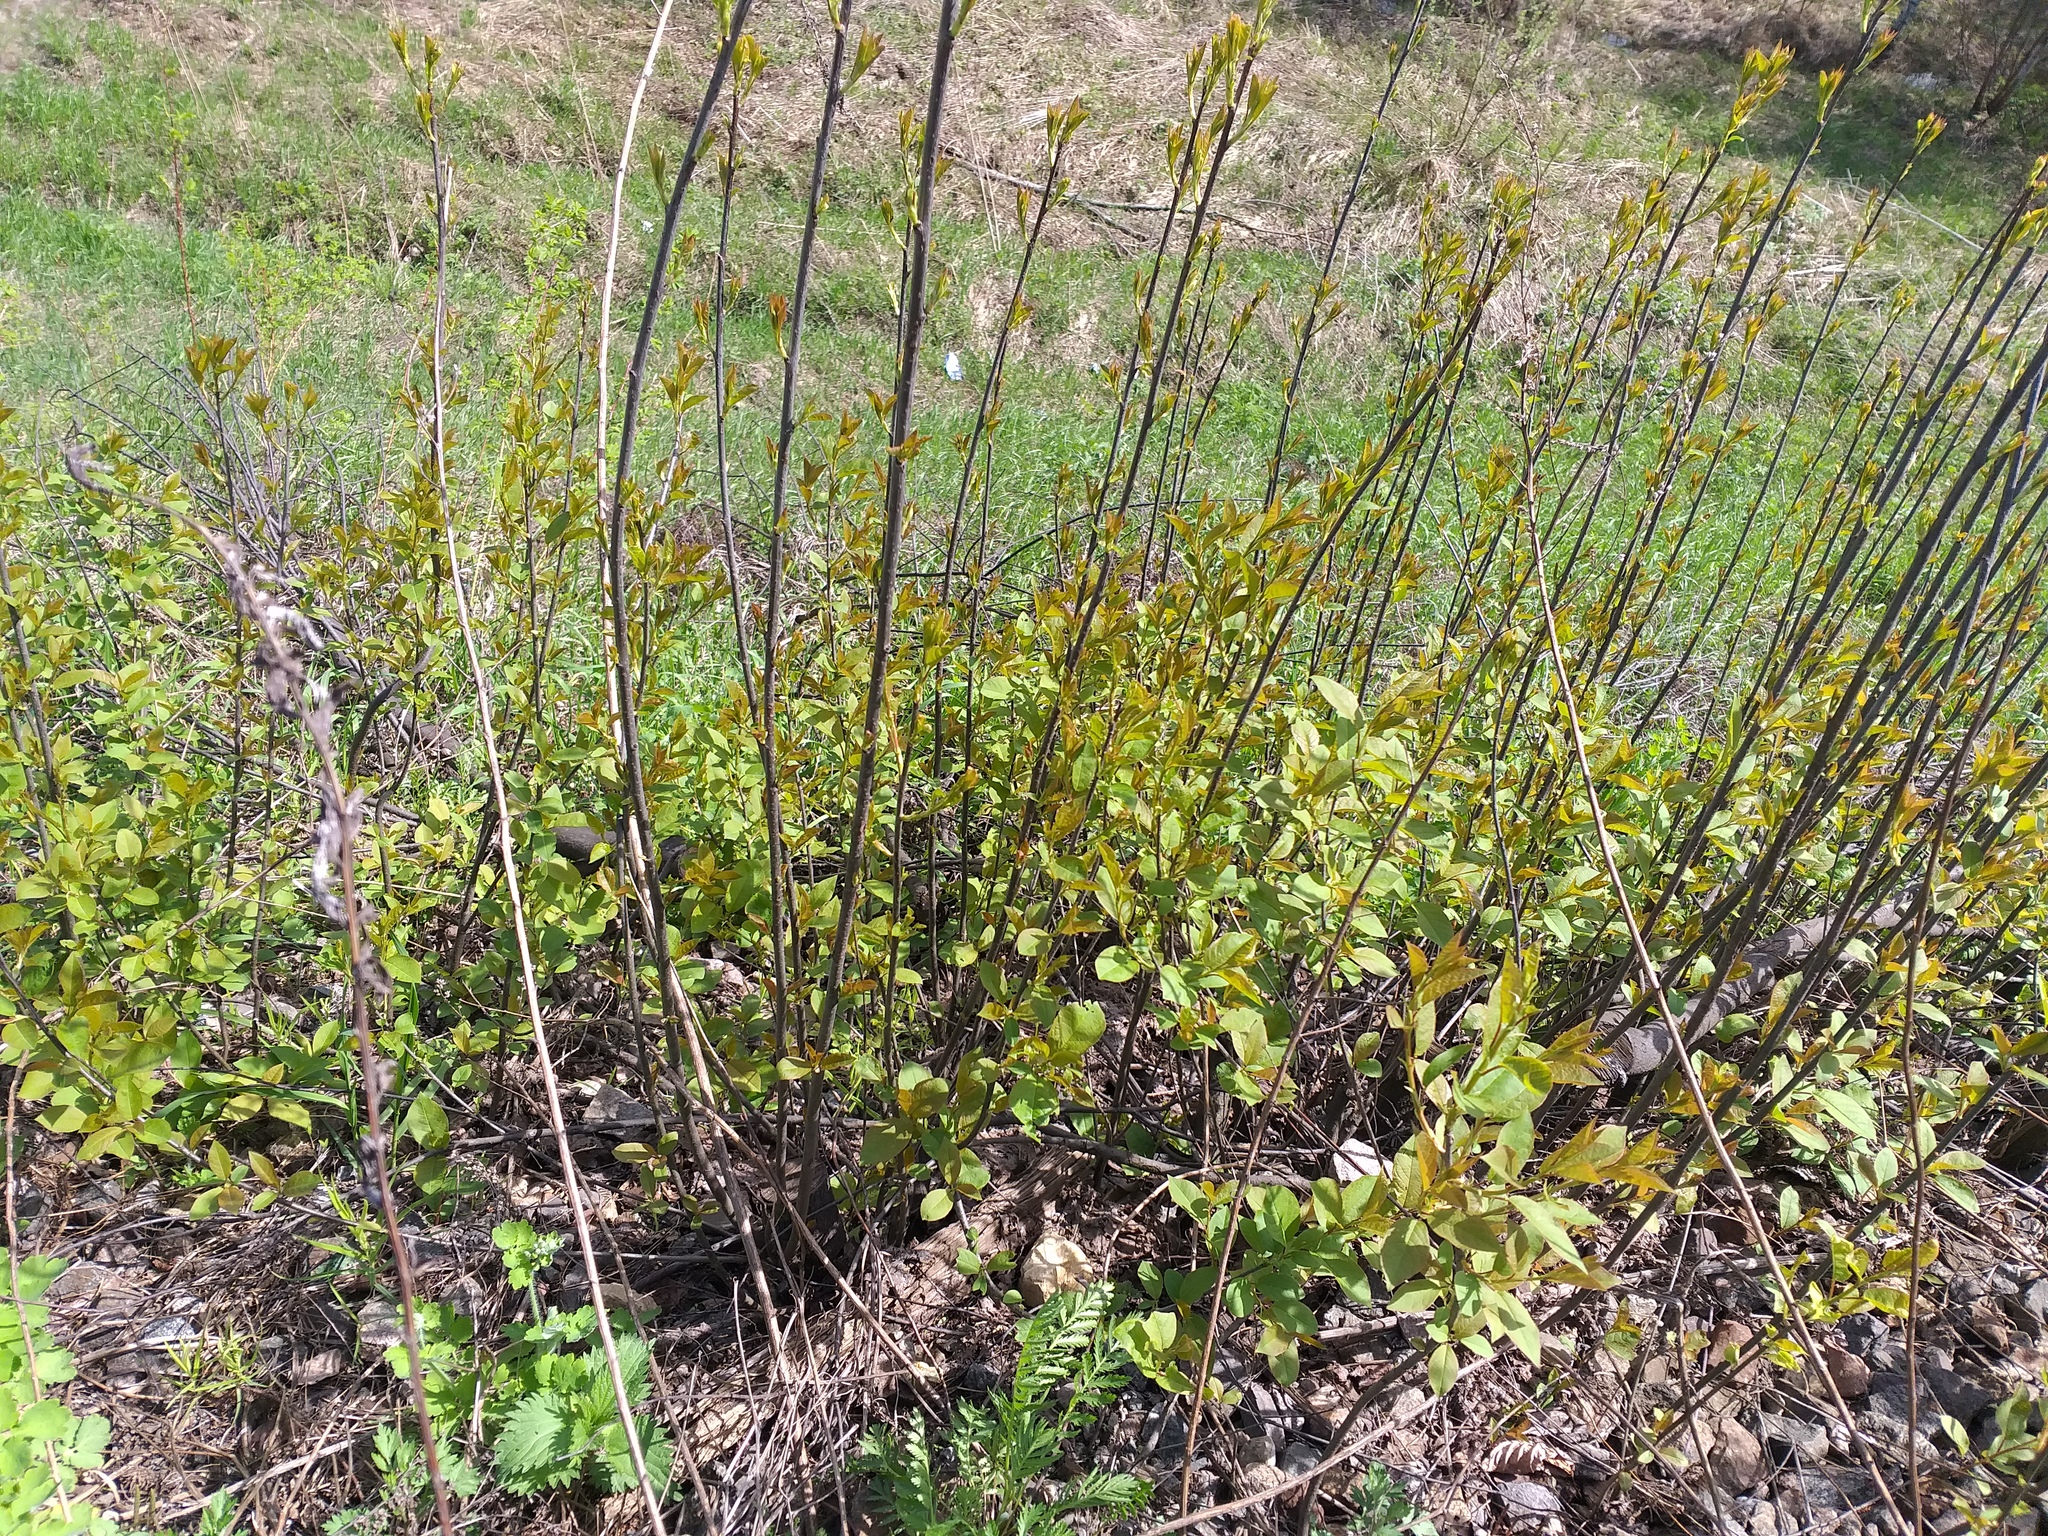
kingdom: Plantae
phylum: Tracheophyta
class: Magnoliopsida
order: Rosales
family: Rosaceae
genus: Prunus
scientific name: Prunus padus
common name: Bird cherry
